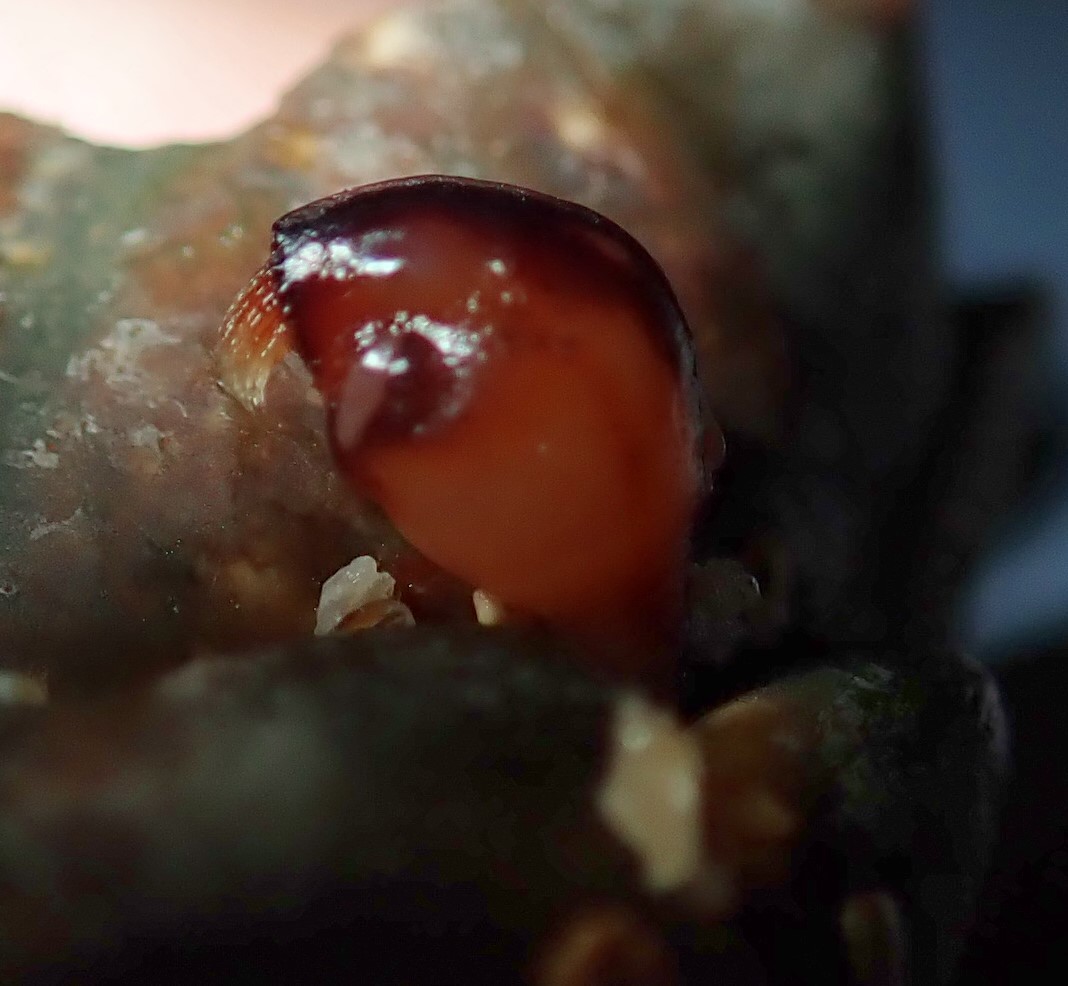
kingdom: Animalia
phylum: Arthropoda
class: Maxillopoda
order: Pedunculata
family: Heteralepadidae
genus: Paralepas
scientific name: Paralepas quadrata
